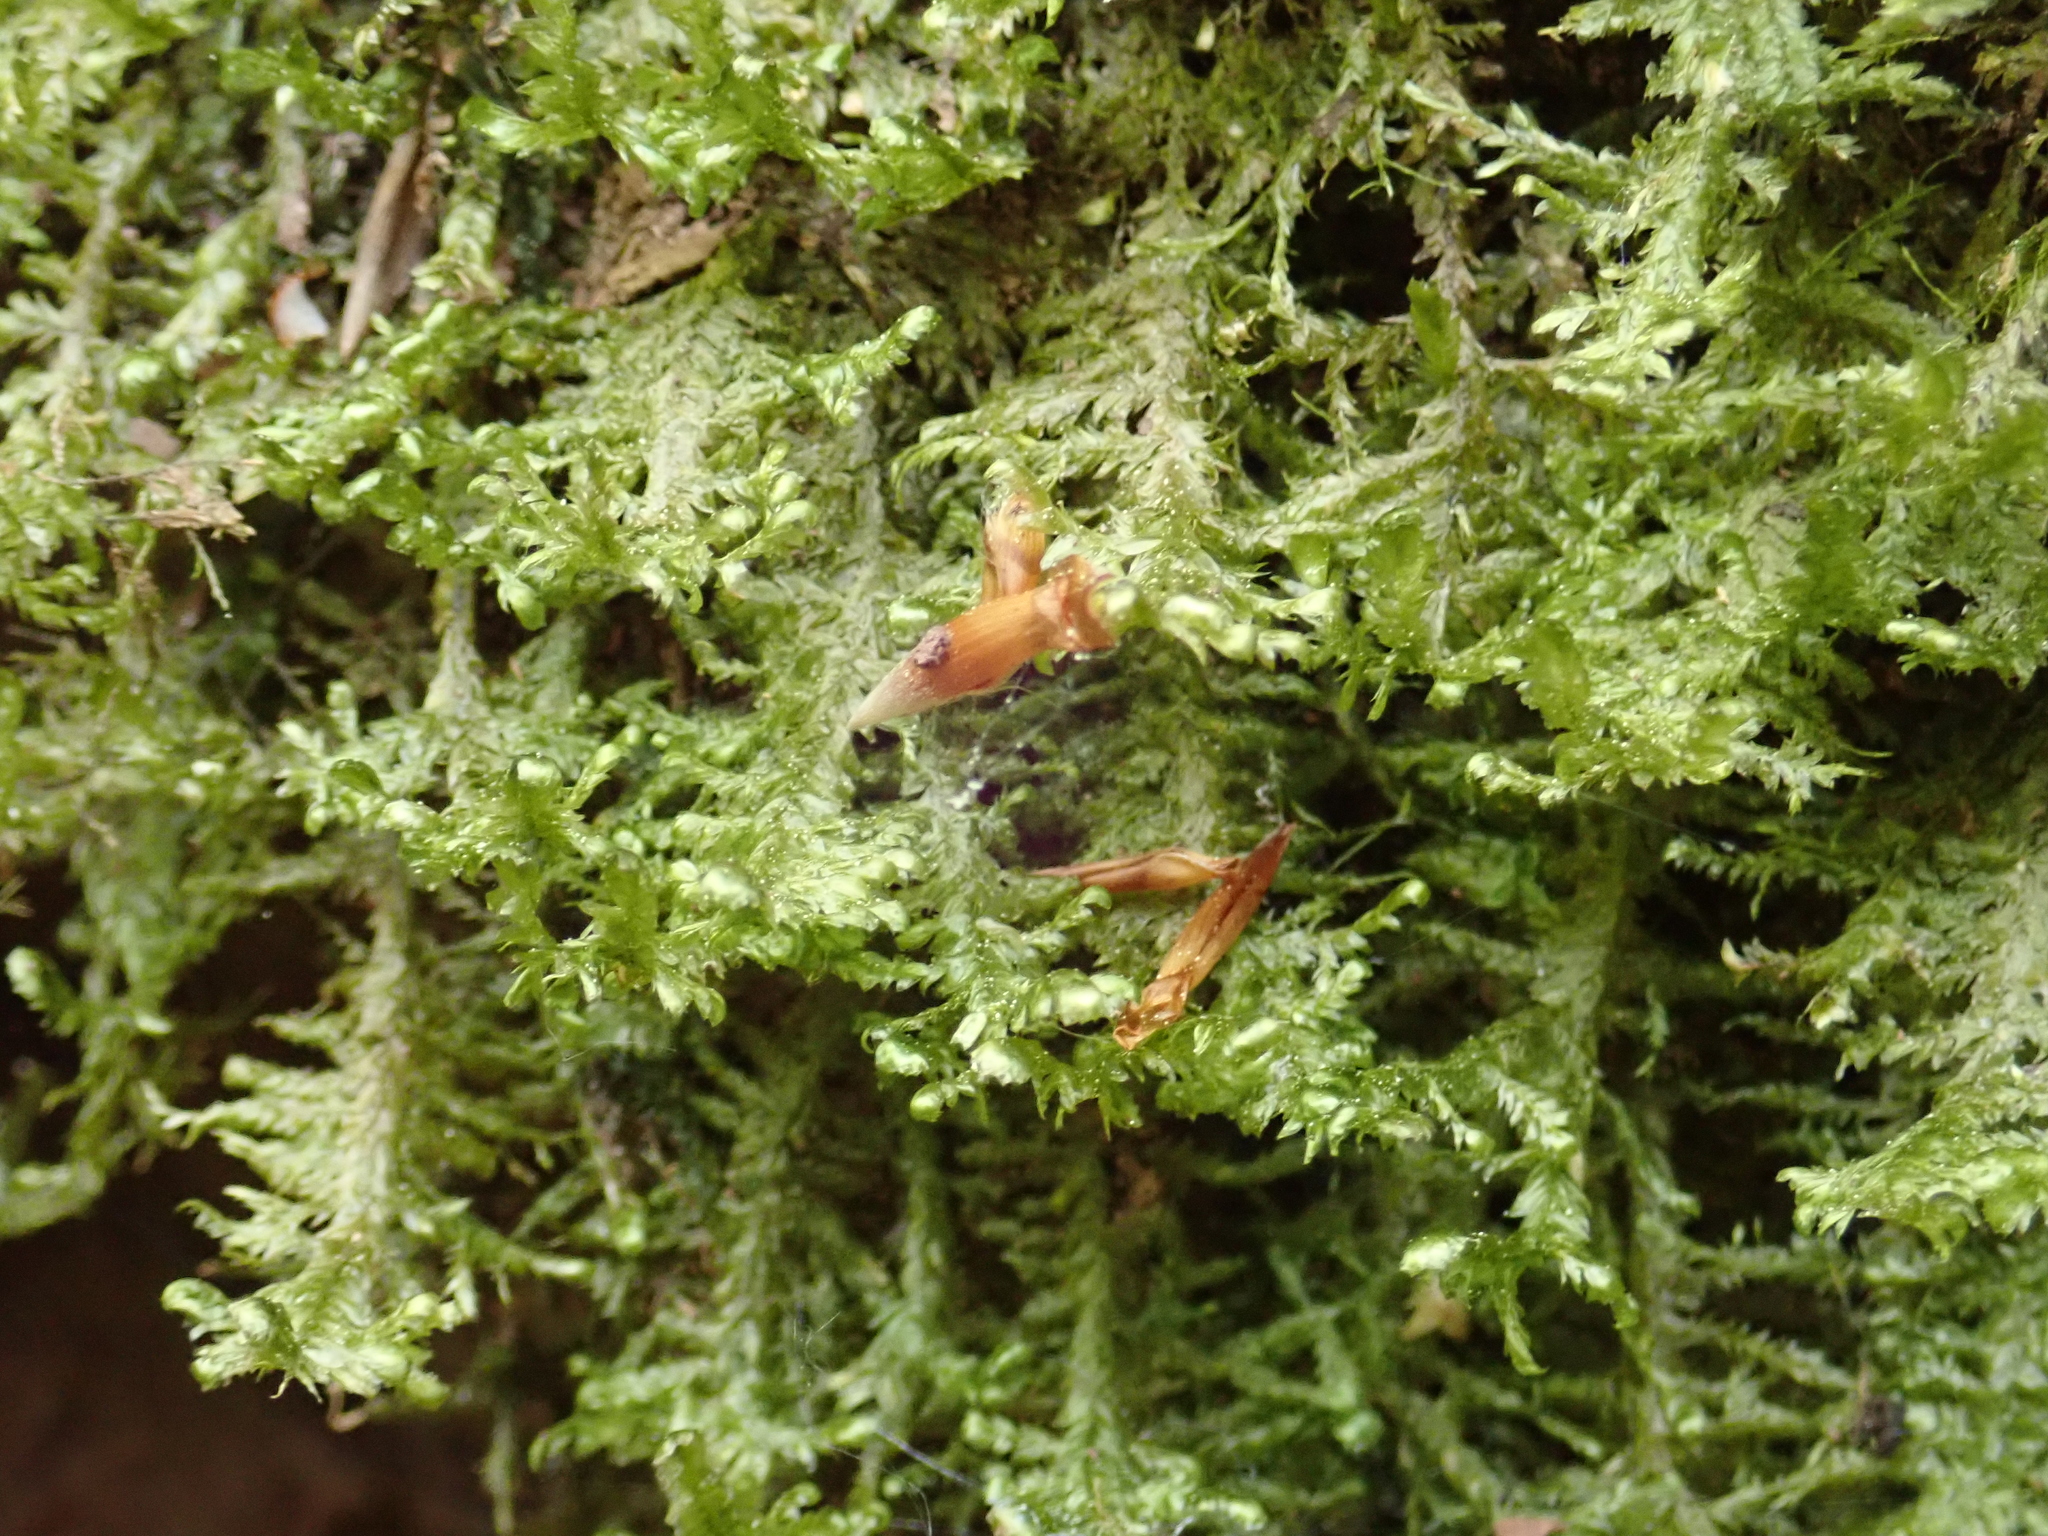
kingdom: Plantae
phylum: Bryophyta
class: Bryopsida
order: Hypnales
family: Neckeraceae
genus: Alleniella
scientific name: Alleniella complanata
